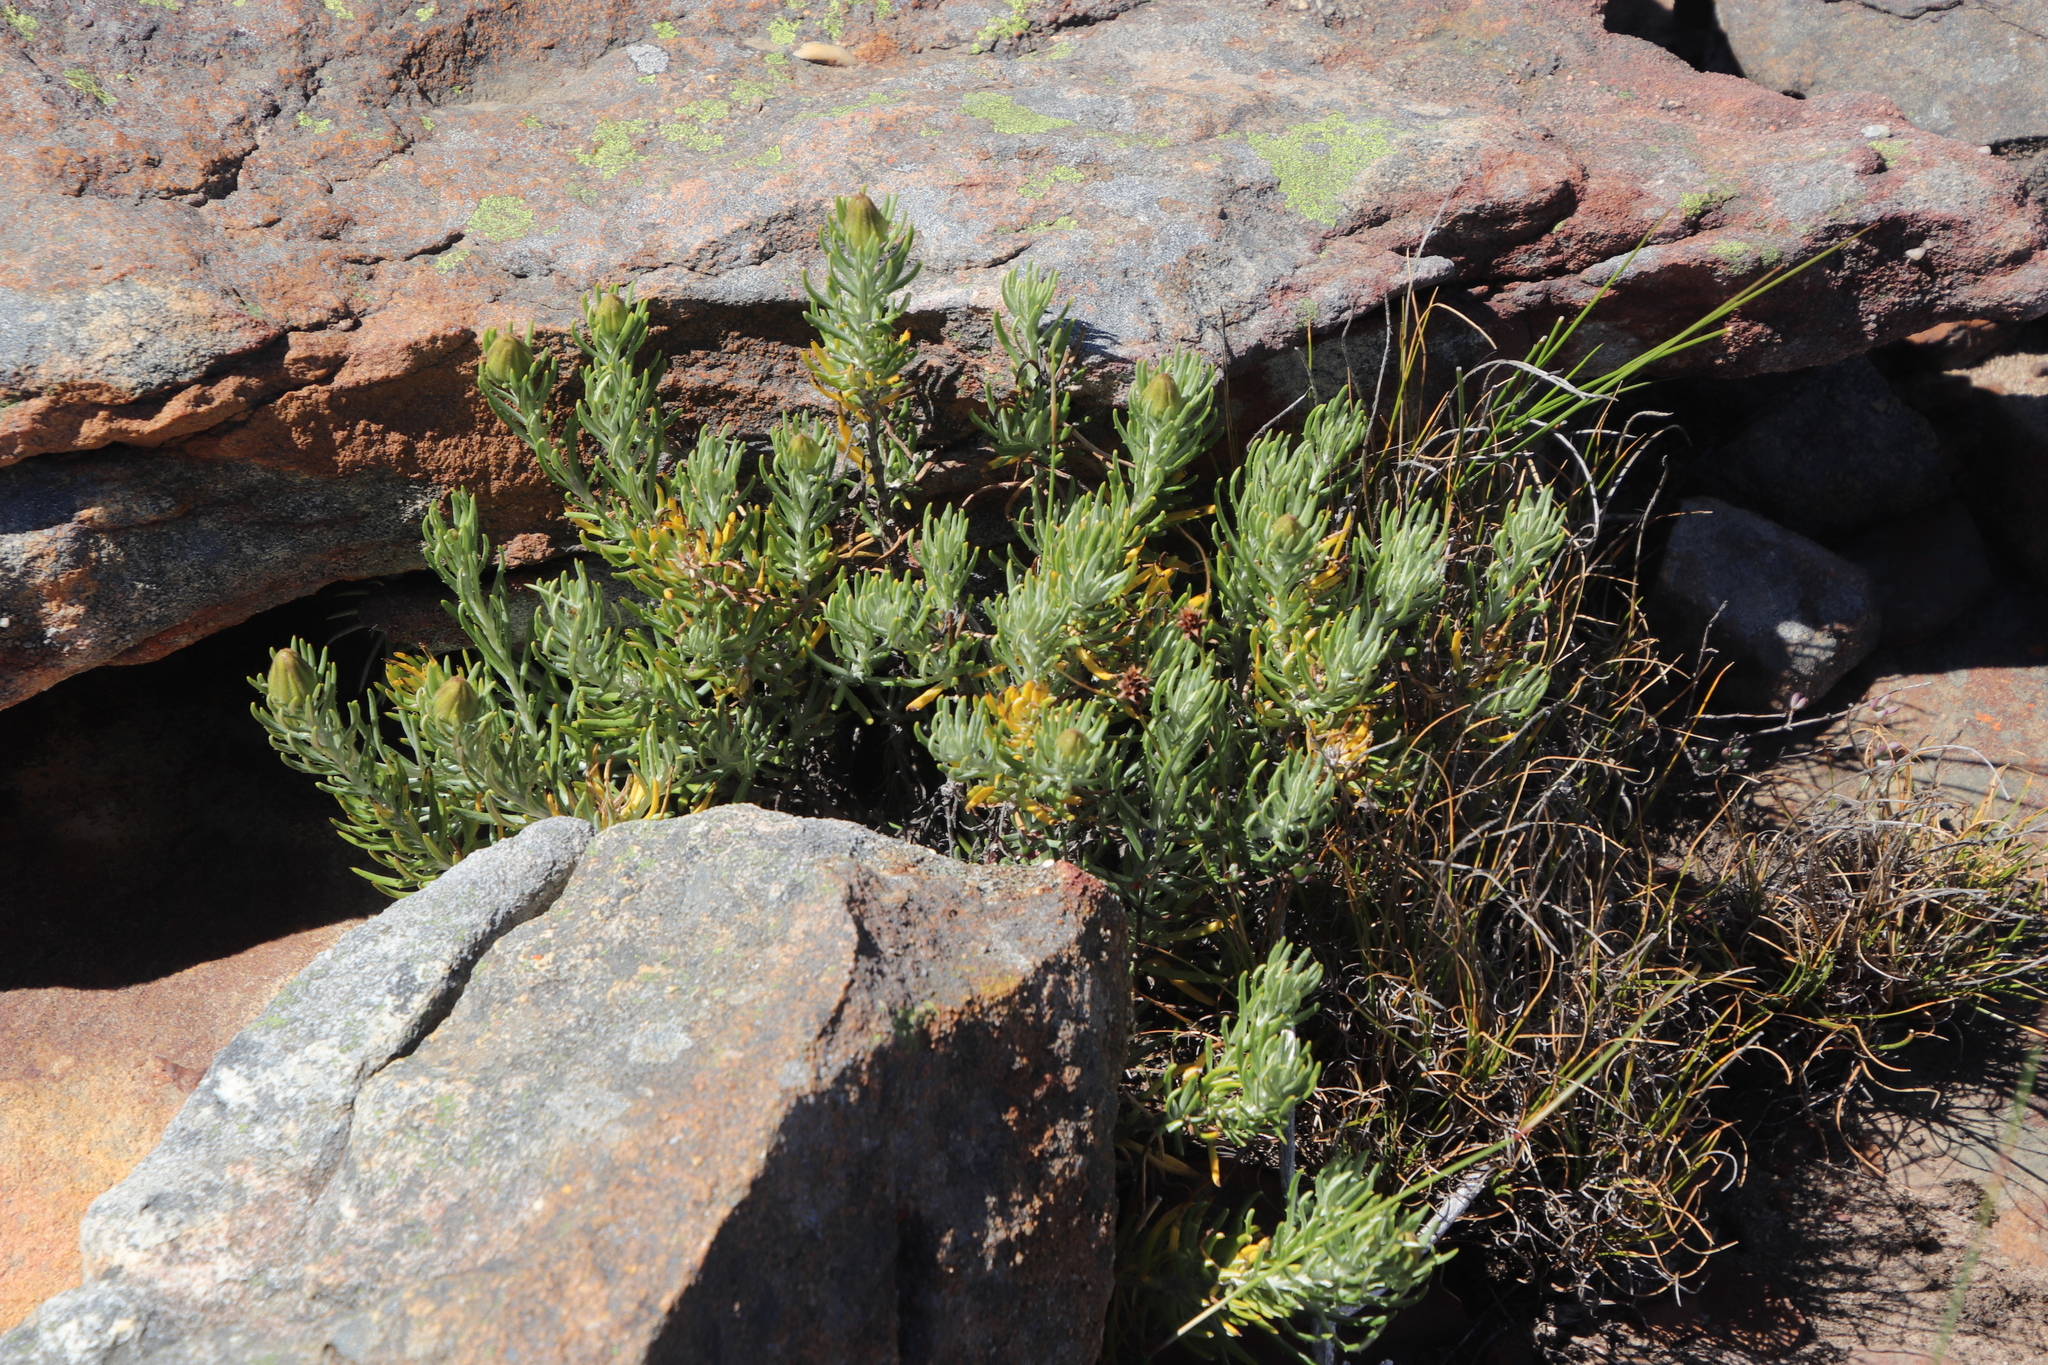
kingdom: Plantae
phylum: Tracheophyta
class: Magnoliopsida
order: Asterales
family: Asteraceae
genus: Heterolepis
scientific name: Heterolepis aliena
